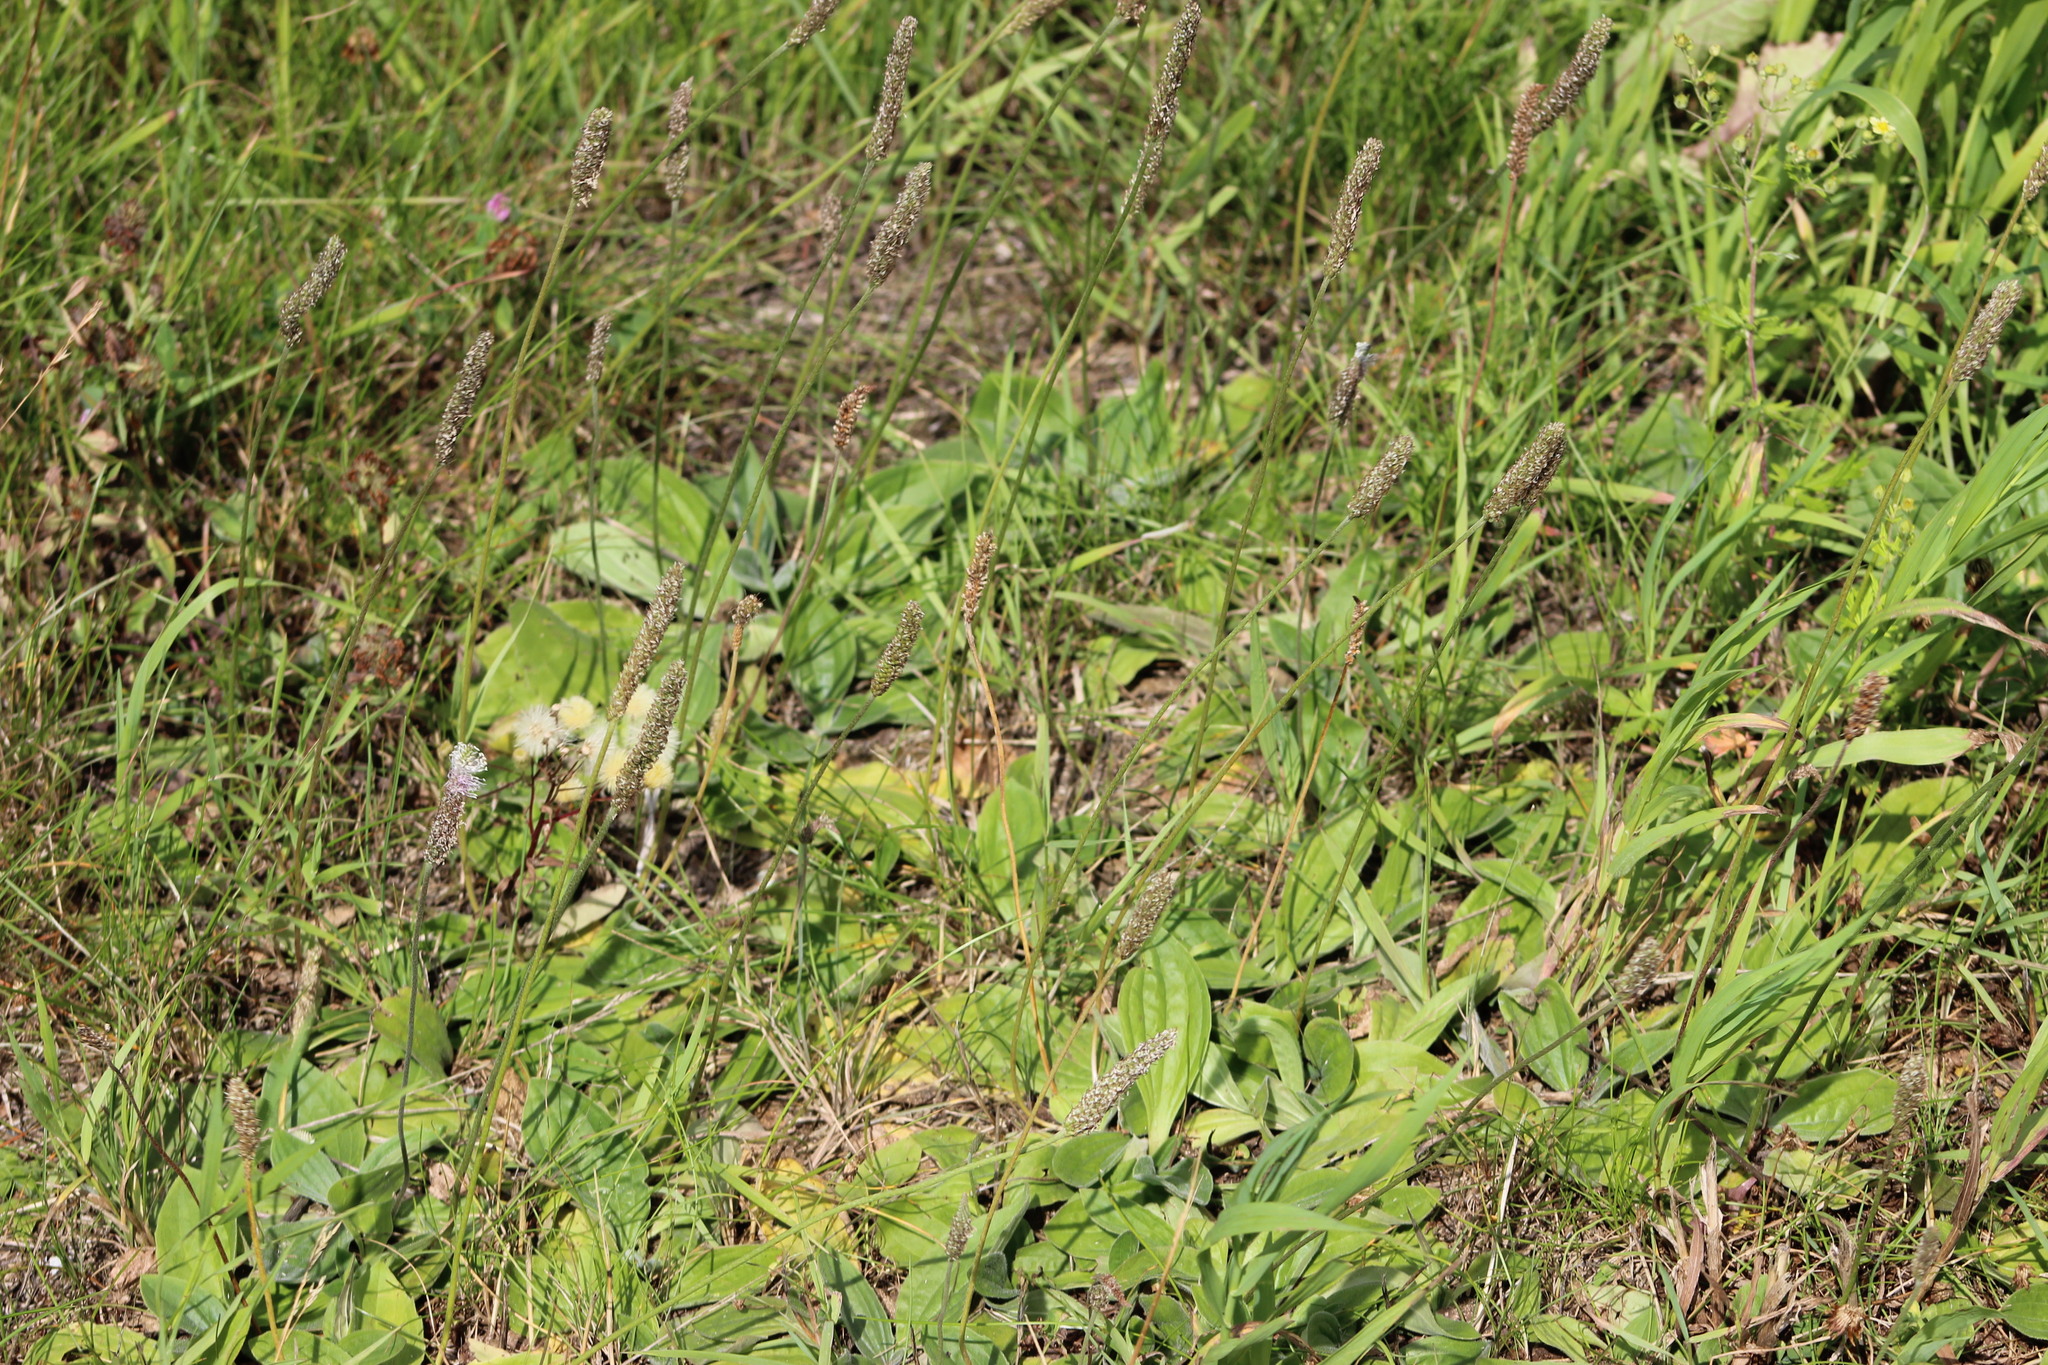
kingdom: Plantae
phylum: Tracheophyta
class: Magnoliopsida
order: Lamiales
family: Plantaginaceae
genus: Plantago
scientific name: Plantago media
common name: Hoary plantain
